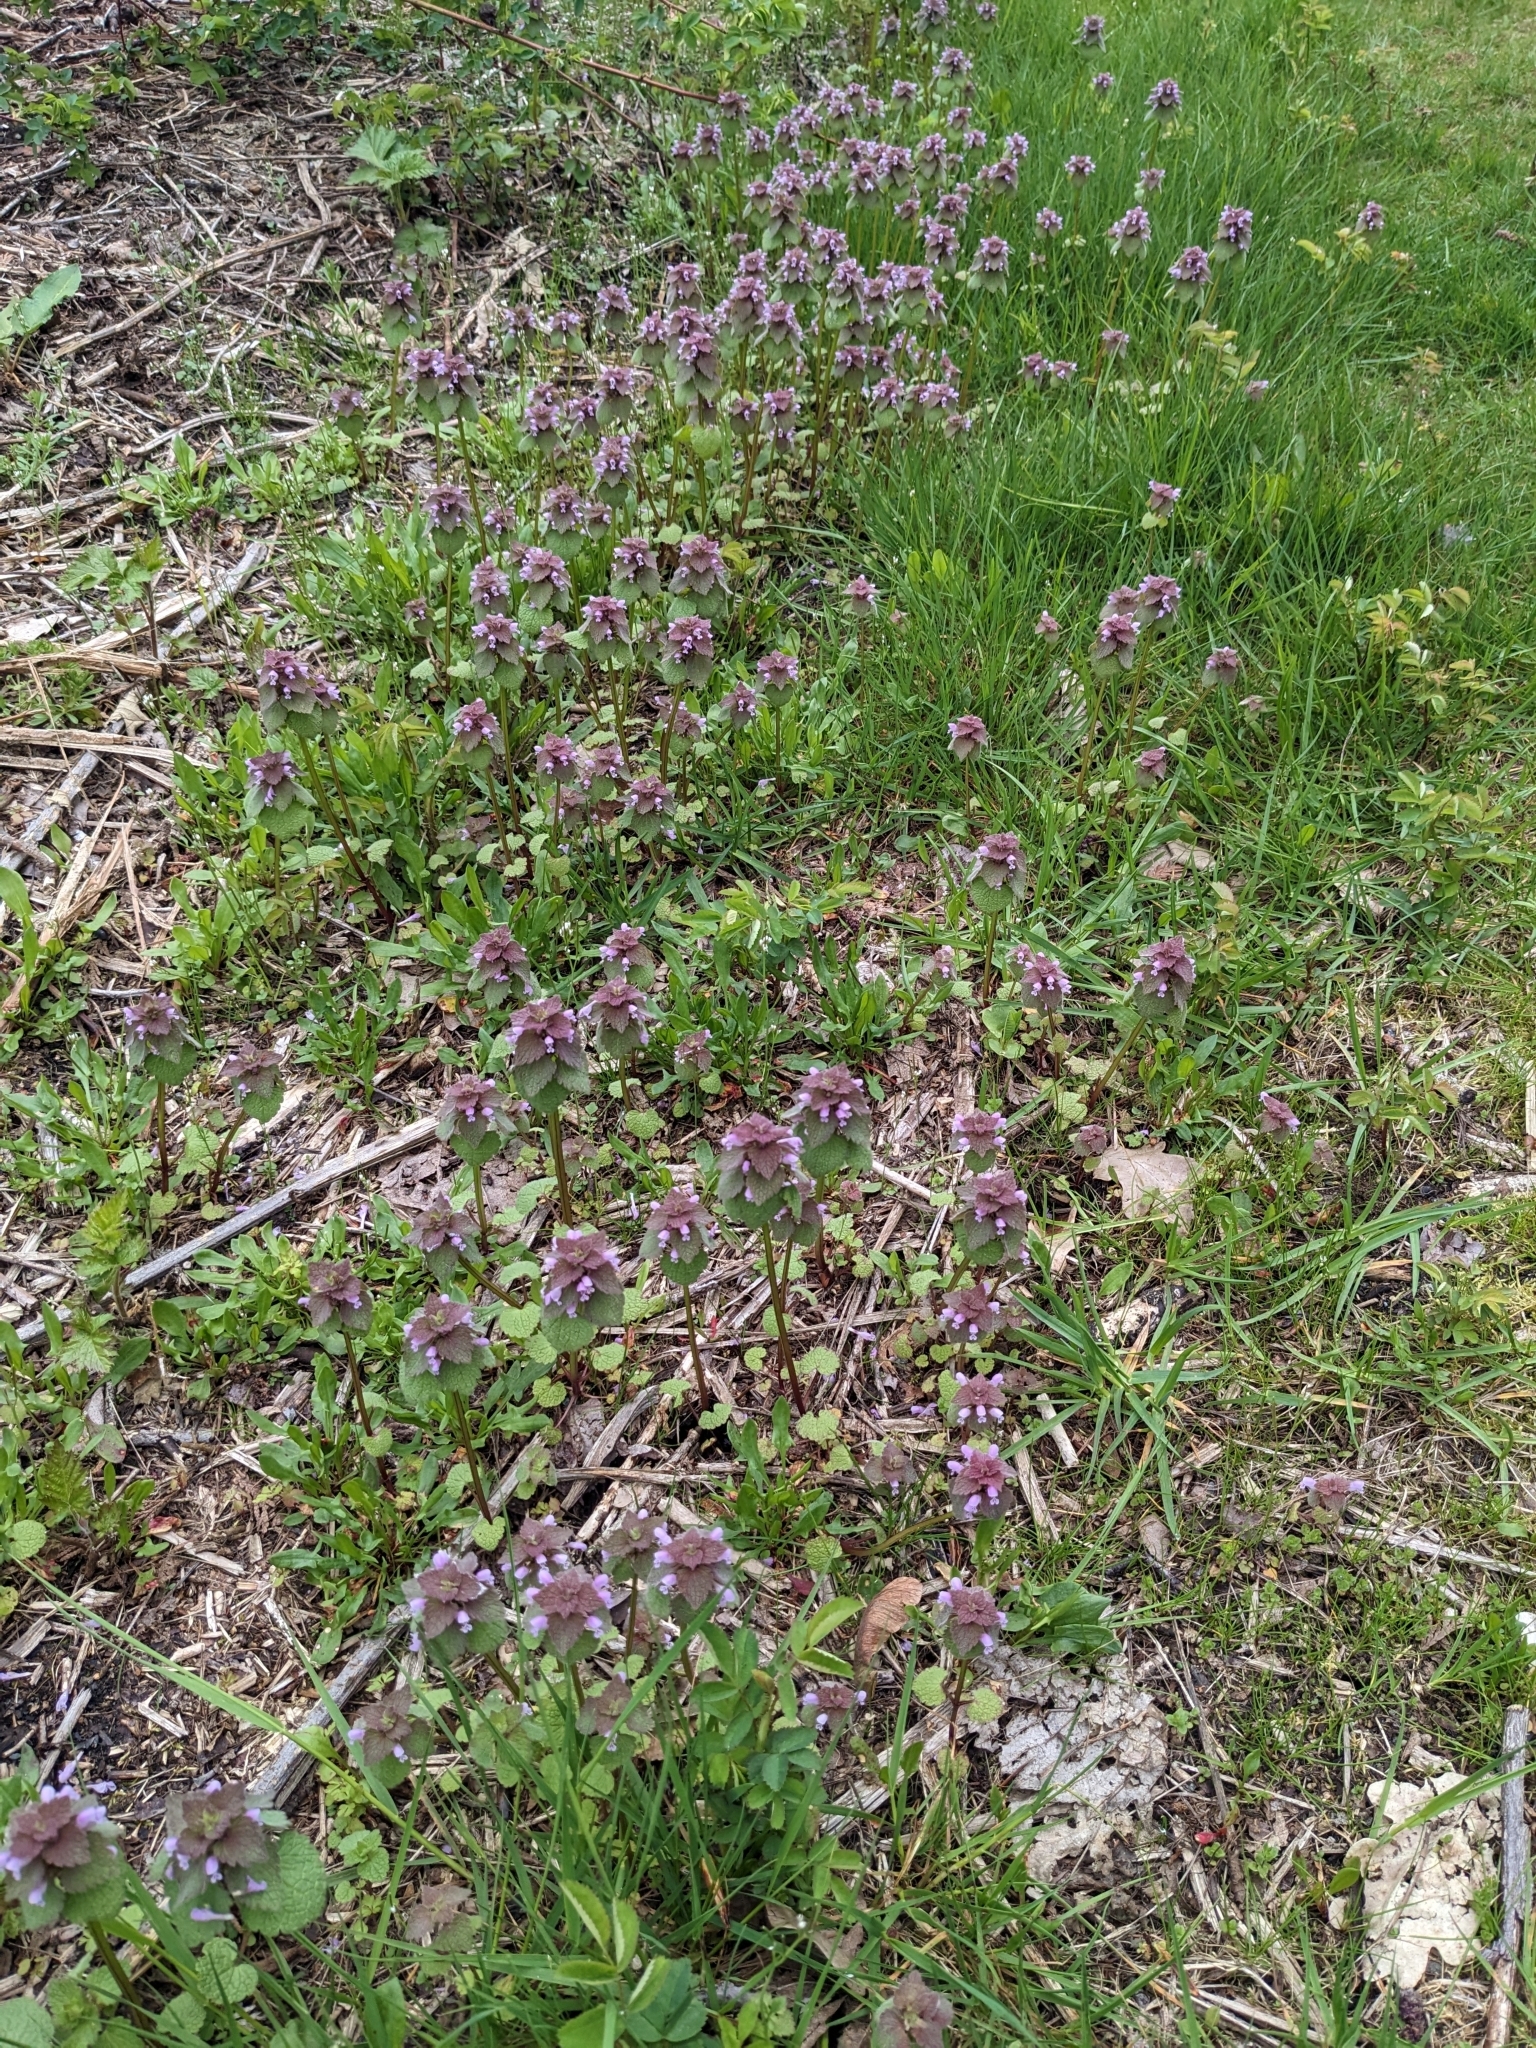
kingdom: Plantae
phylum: Tracheophyta
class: Magnoliopsida
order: Lamiales
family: Lamiaceae
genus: Lamium
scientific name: Lamium purpureum
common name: Red dead-nettle
